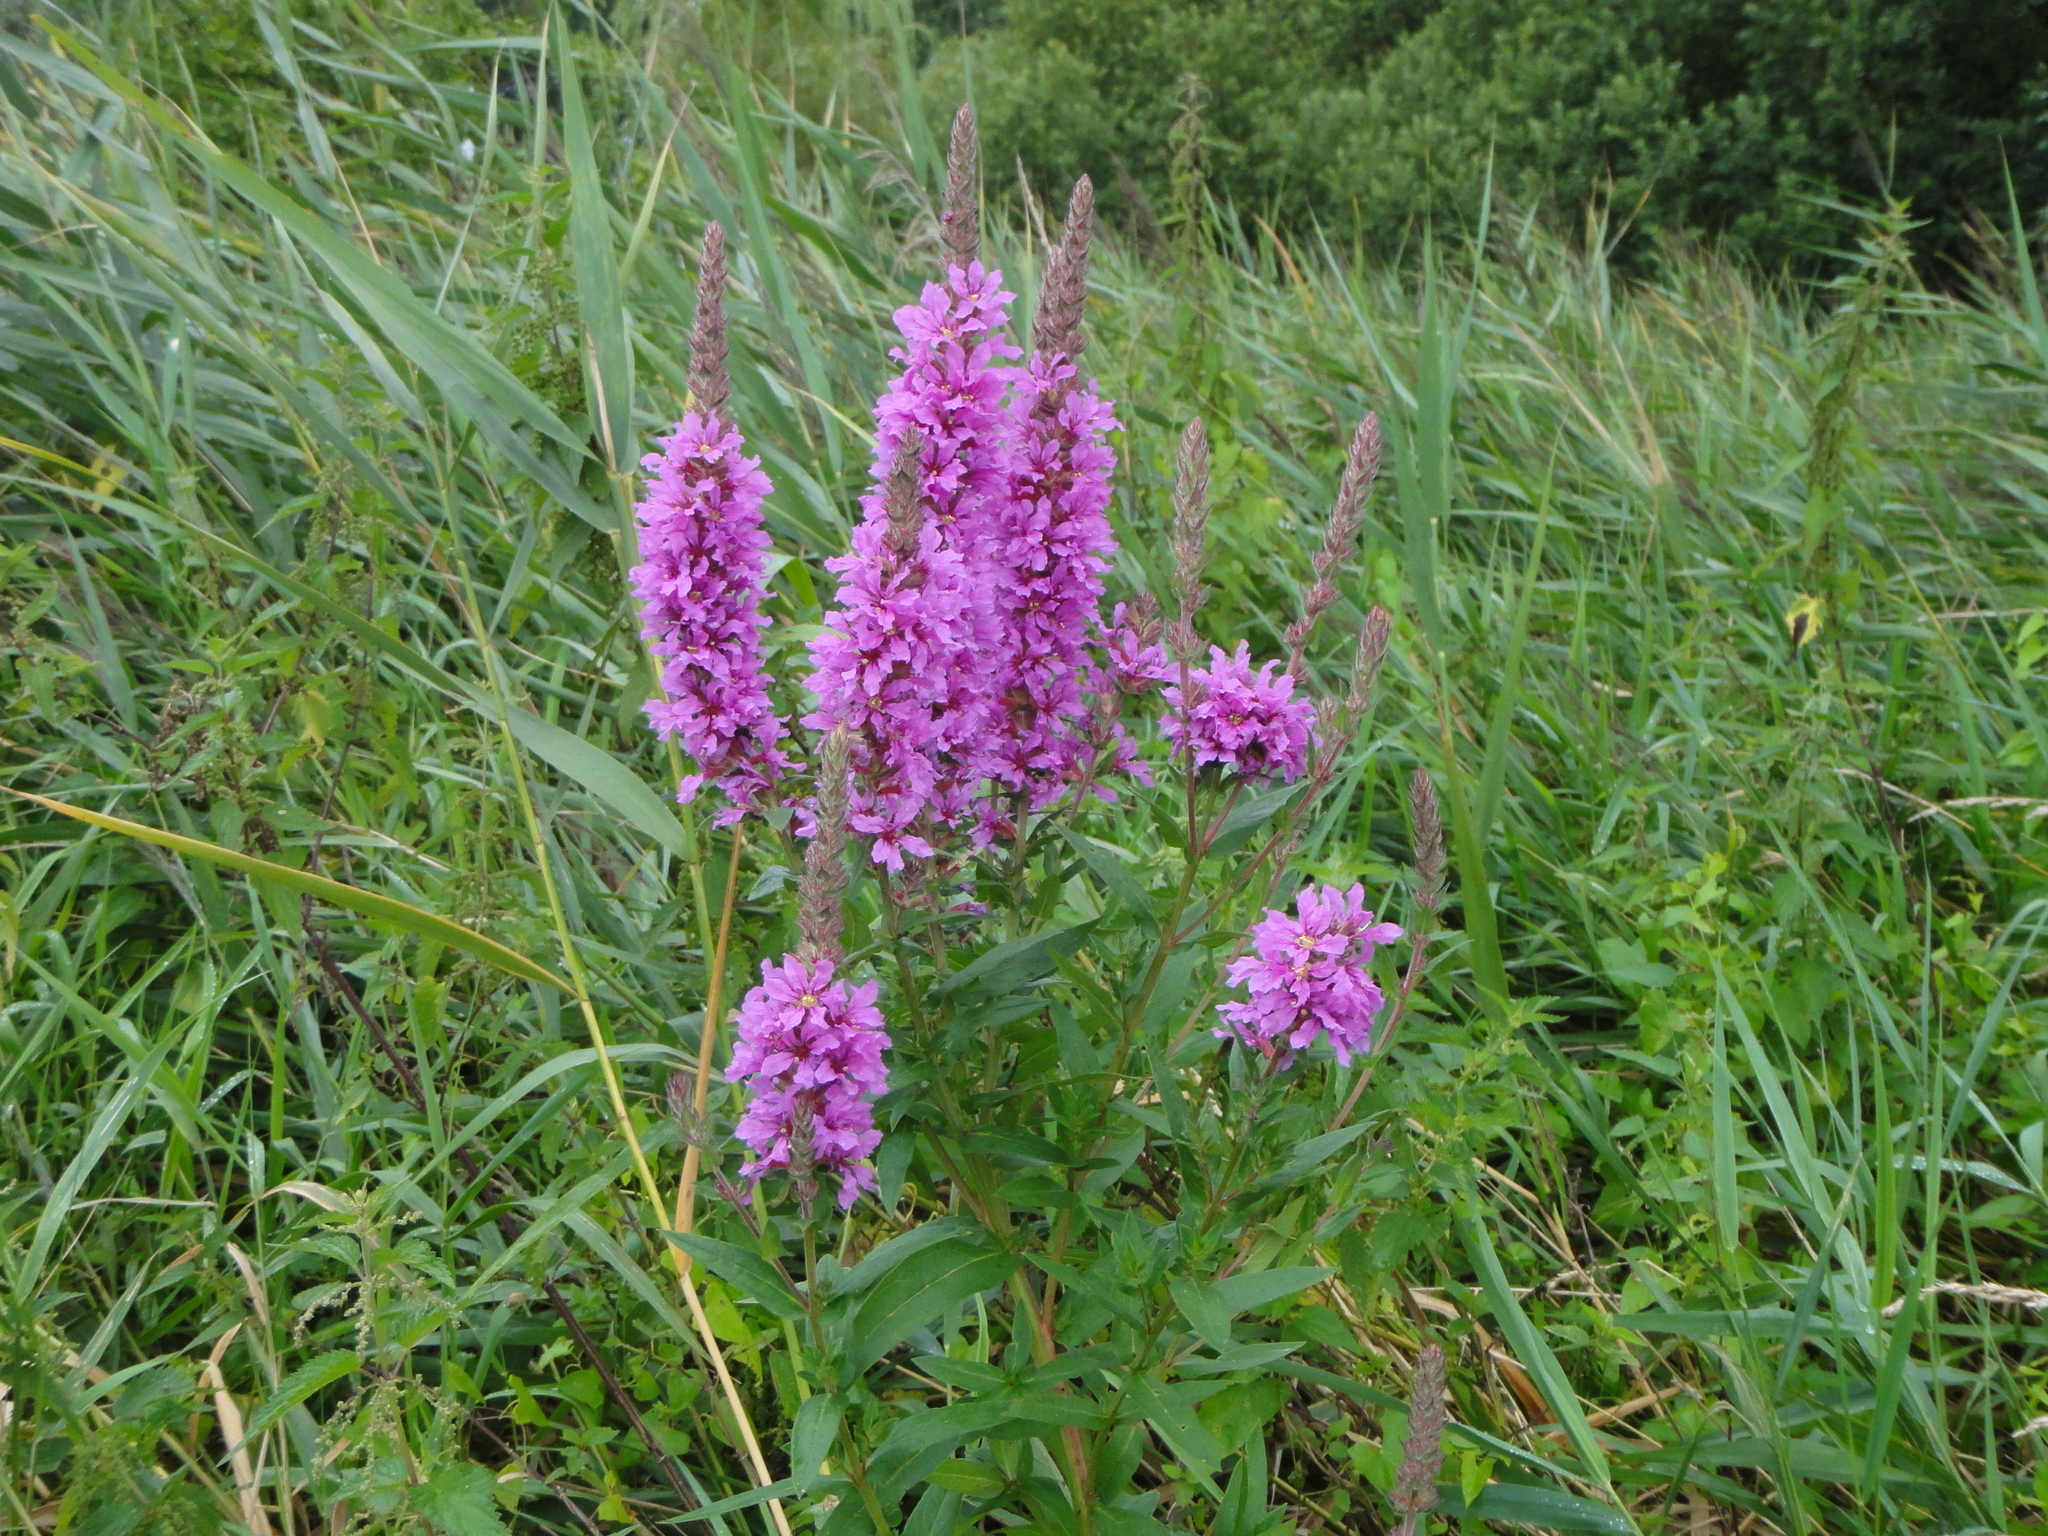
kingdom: Plantae
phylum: Tracheophyta
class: Magnoliopsida
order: Myrtales
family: Lythraceae
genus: Lythrum
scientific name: Lythrum salicaria
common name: Purple loosestrife
